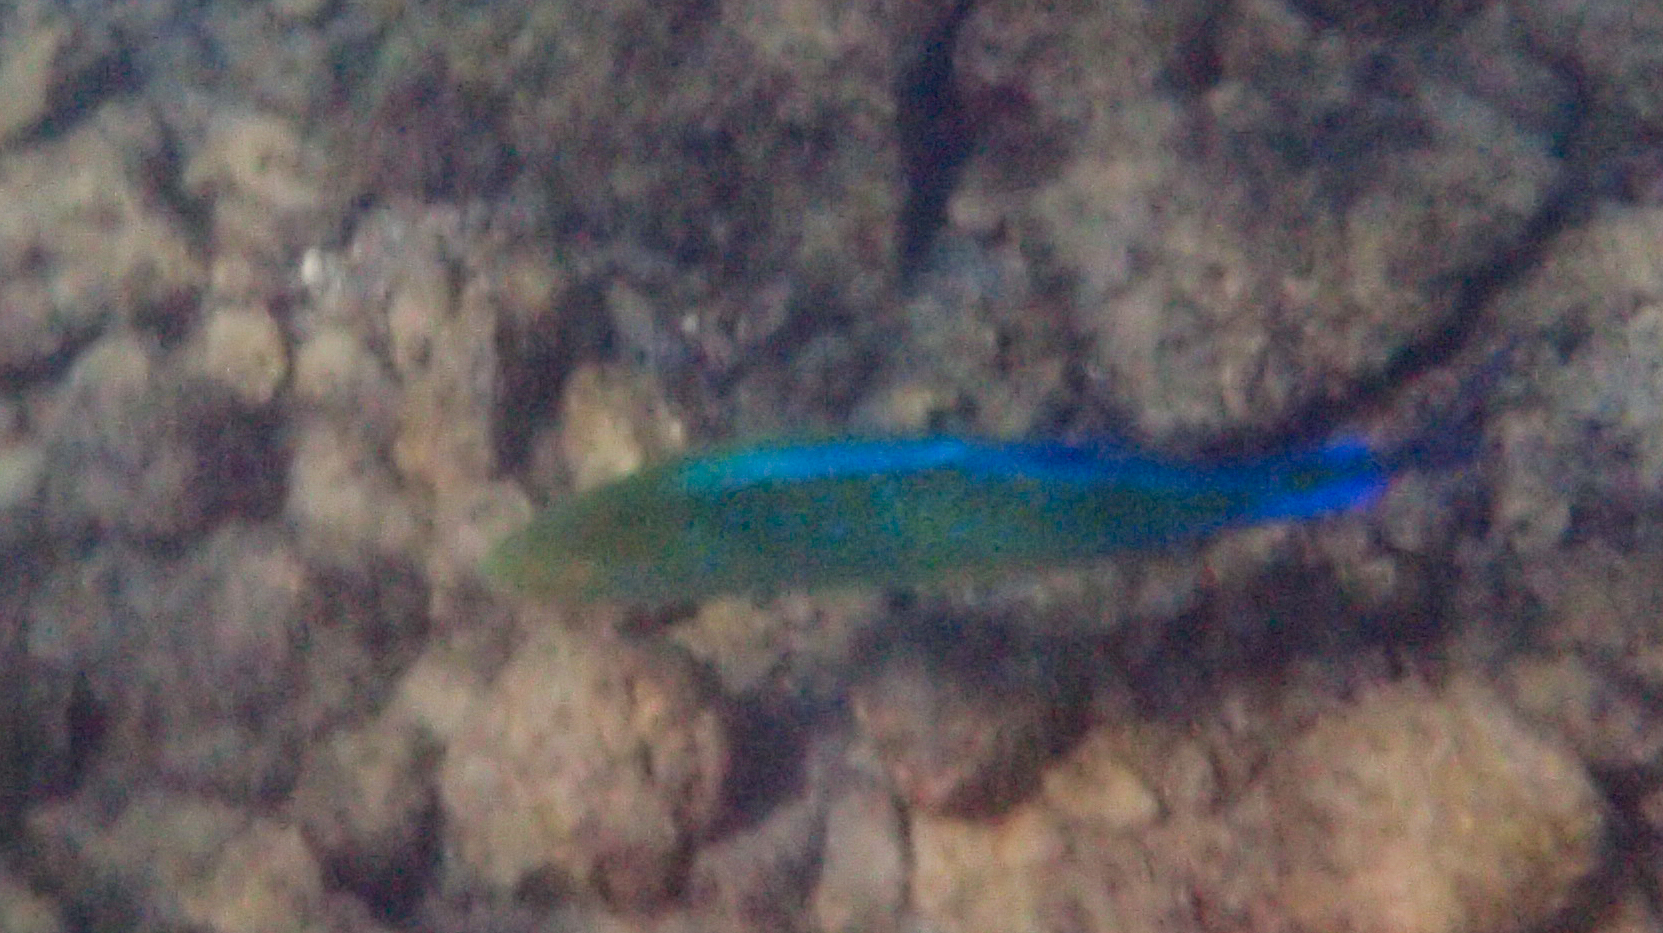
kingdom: Animalia
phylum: Chordata
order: Perciformes
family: Carangidae
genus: Caranx
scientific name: Caranx melampygus
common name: Bluefin trevally
